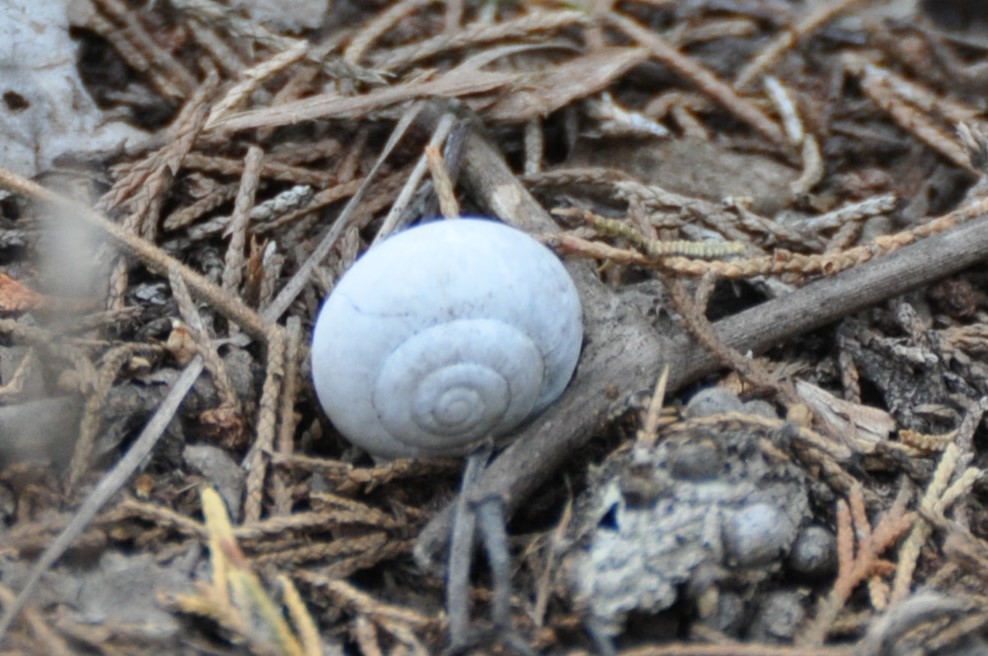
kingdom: Animalia
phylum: Mollusca
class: Gastropoda
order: Stylommatophora
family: Polygyridae
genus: Patera
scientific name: Patera roemeri
